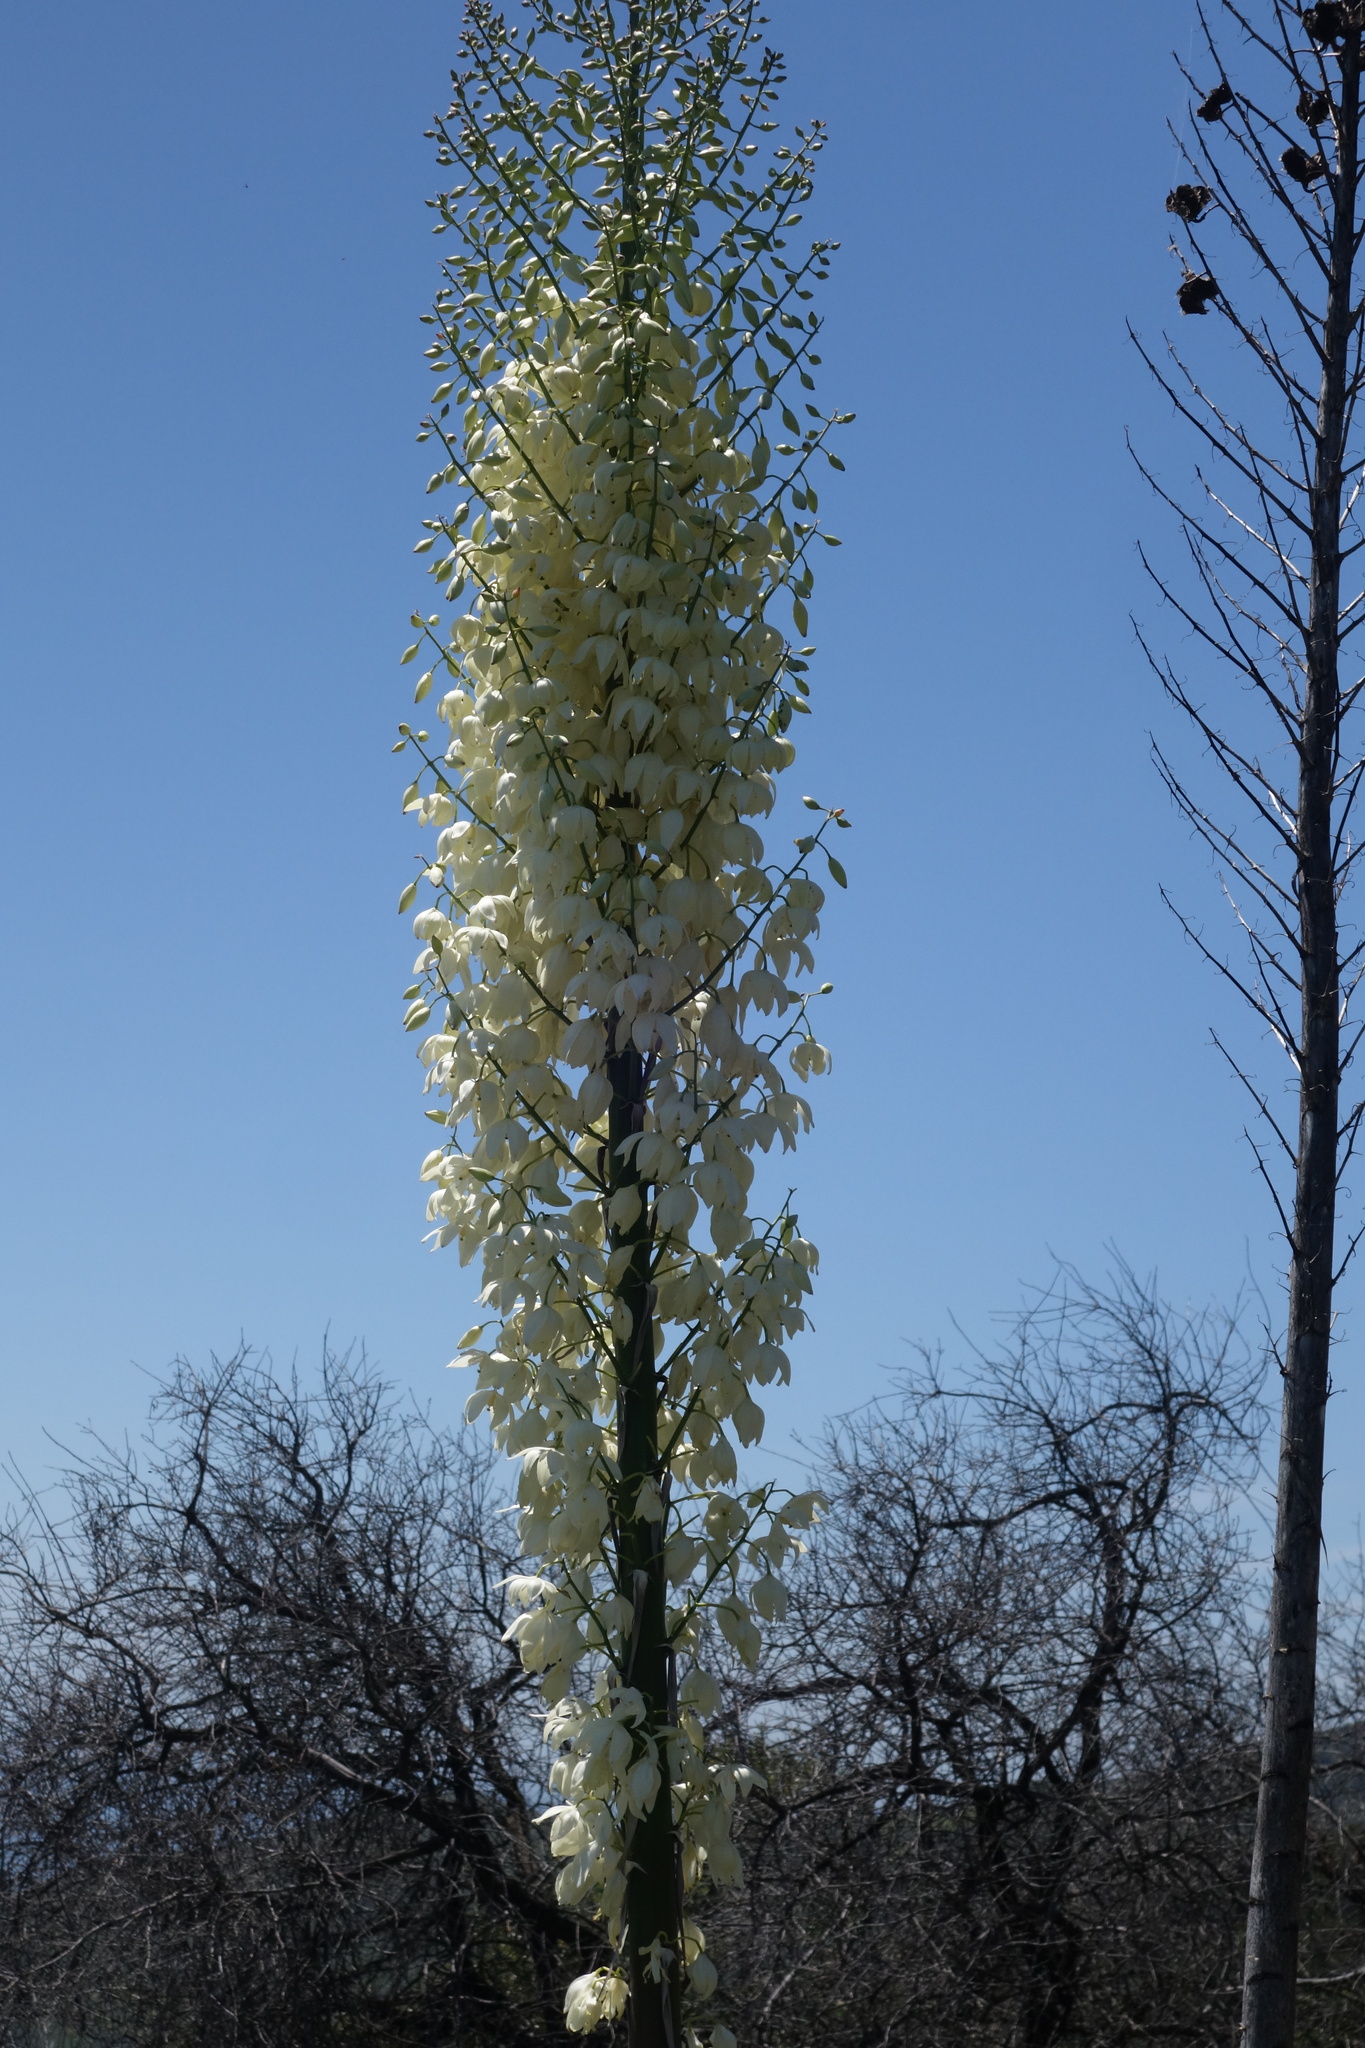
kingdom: Plantae
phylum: Tracheophyta
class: Liliopsida
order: Asparagales
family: Asparagaceae
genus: Hesperoyucca
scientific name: Hesperoyucca whipplei
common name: Our lord's-candle
